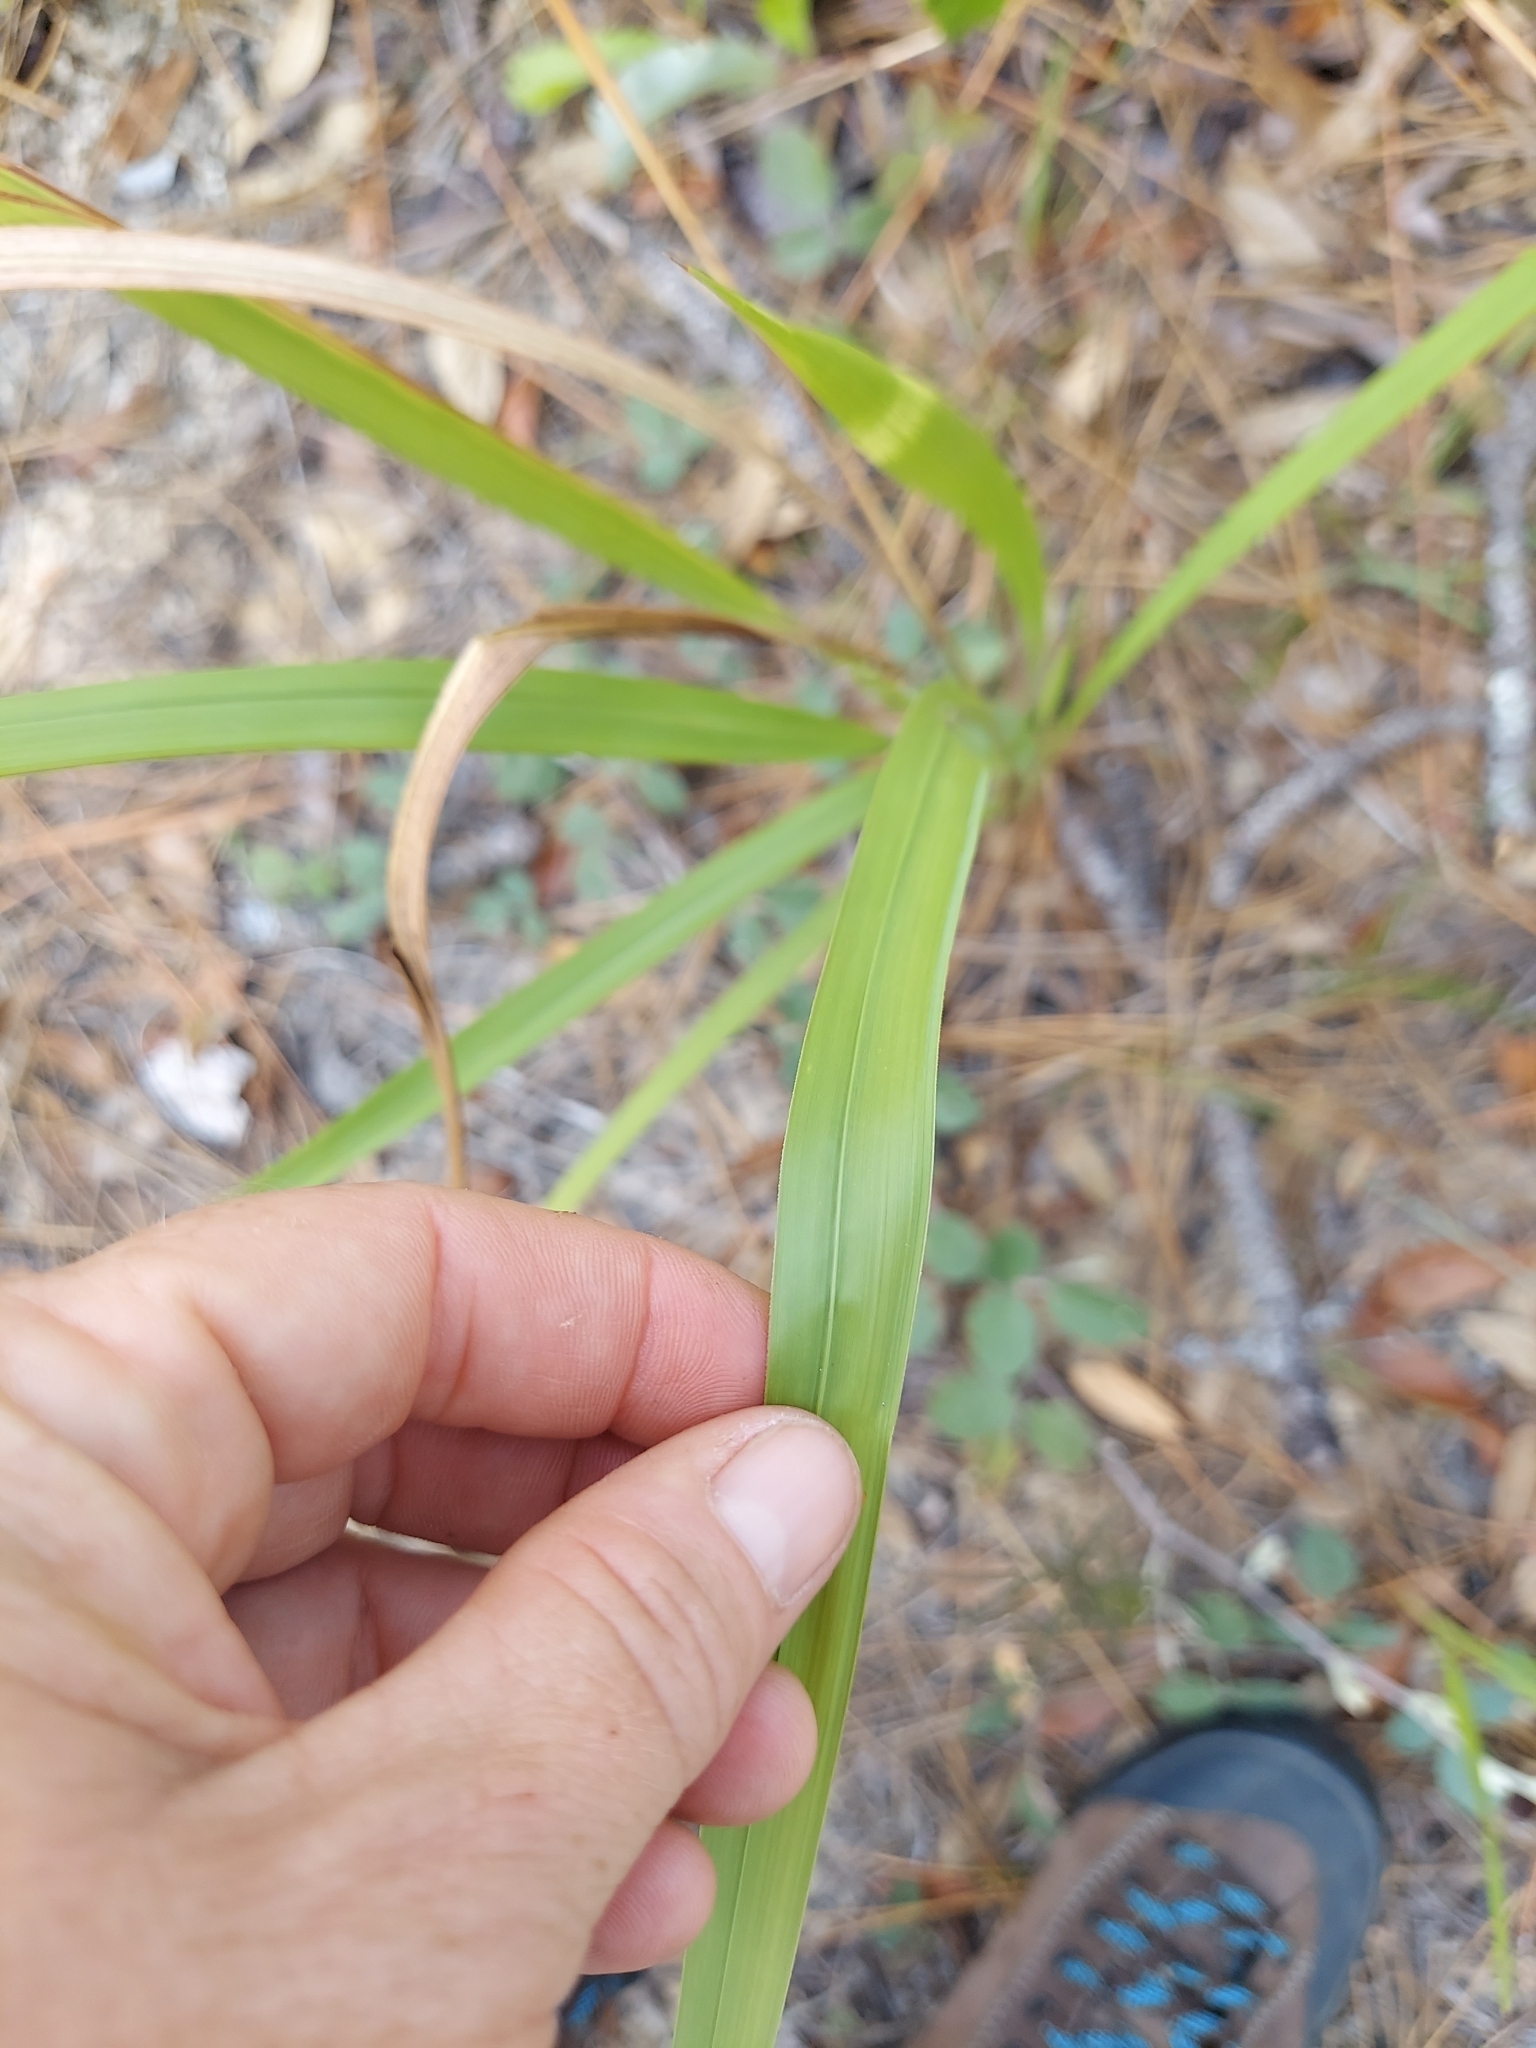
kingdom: Plantae
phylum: Tracheophyta
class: Liliopsida
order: Poales
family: Poaceae
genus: Imperata
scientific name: Imperata cylindrica
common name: Cogongrass
